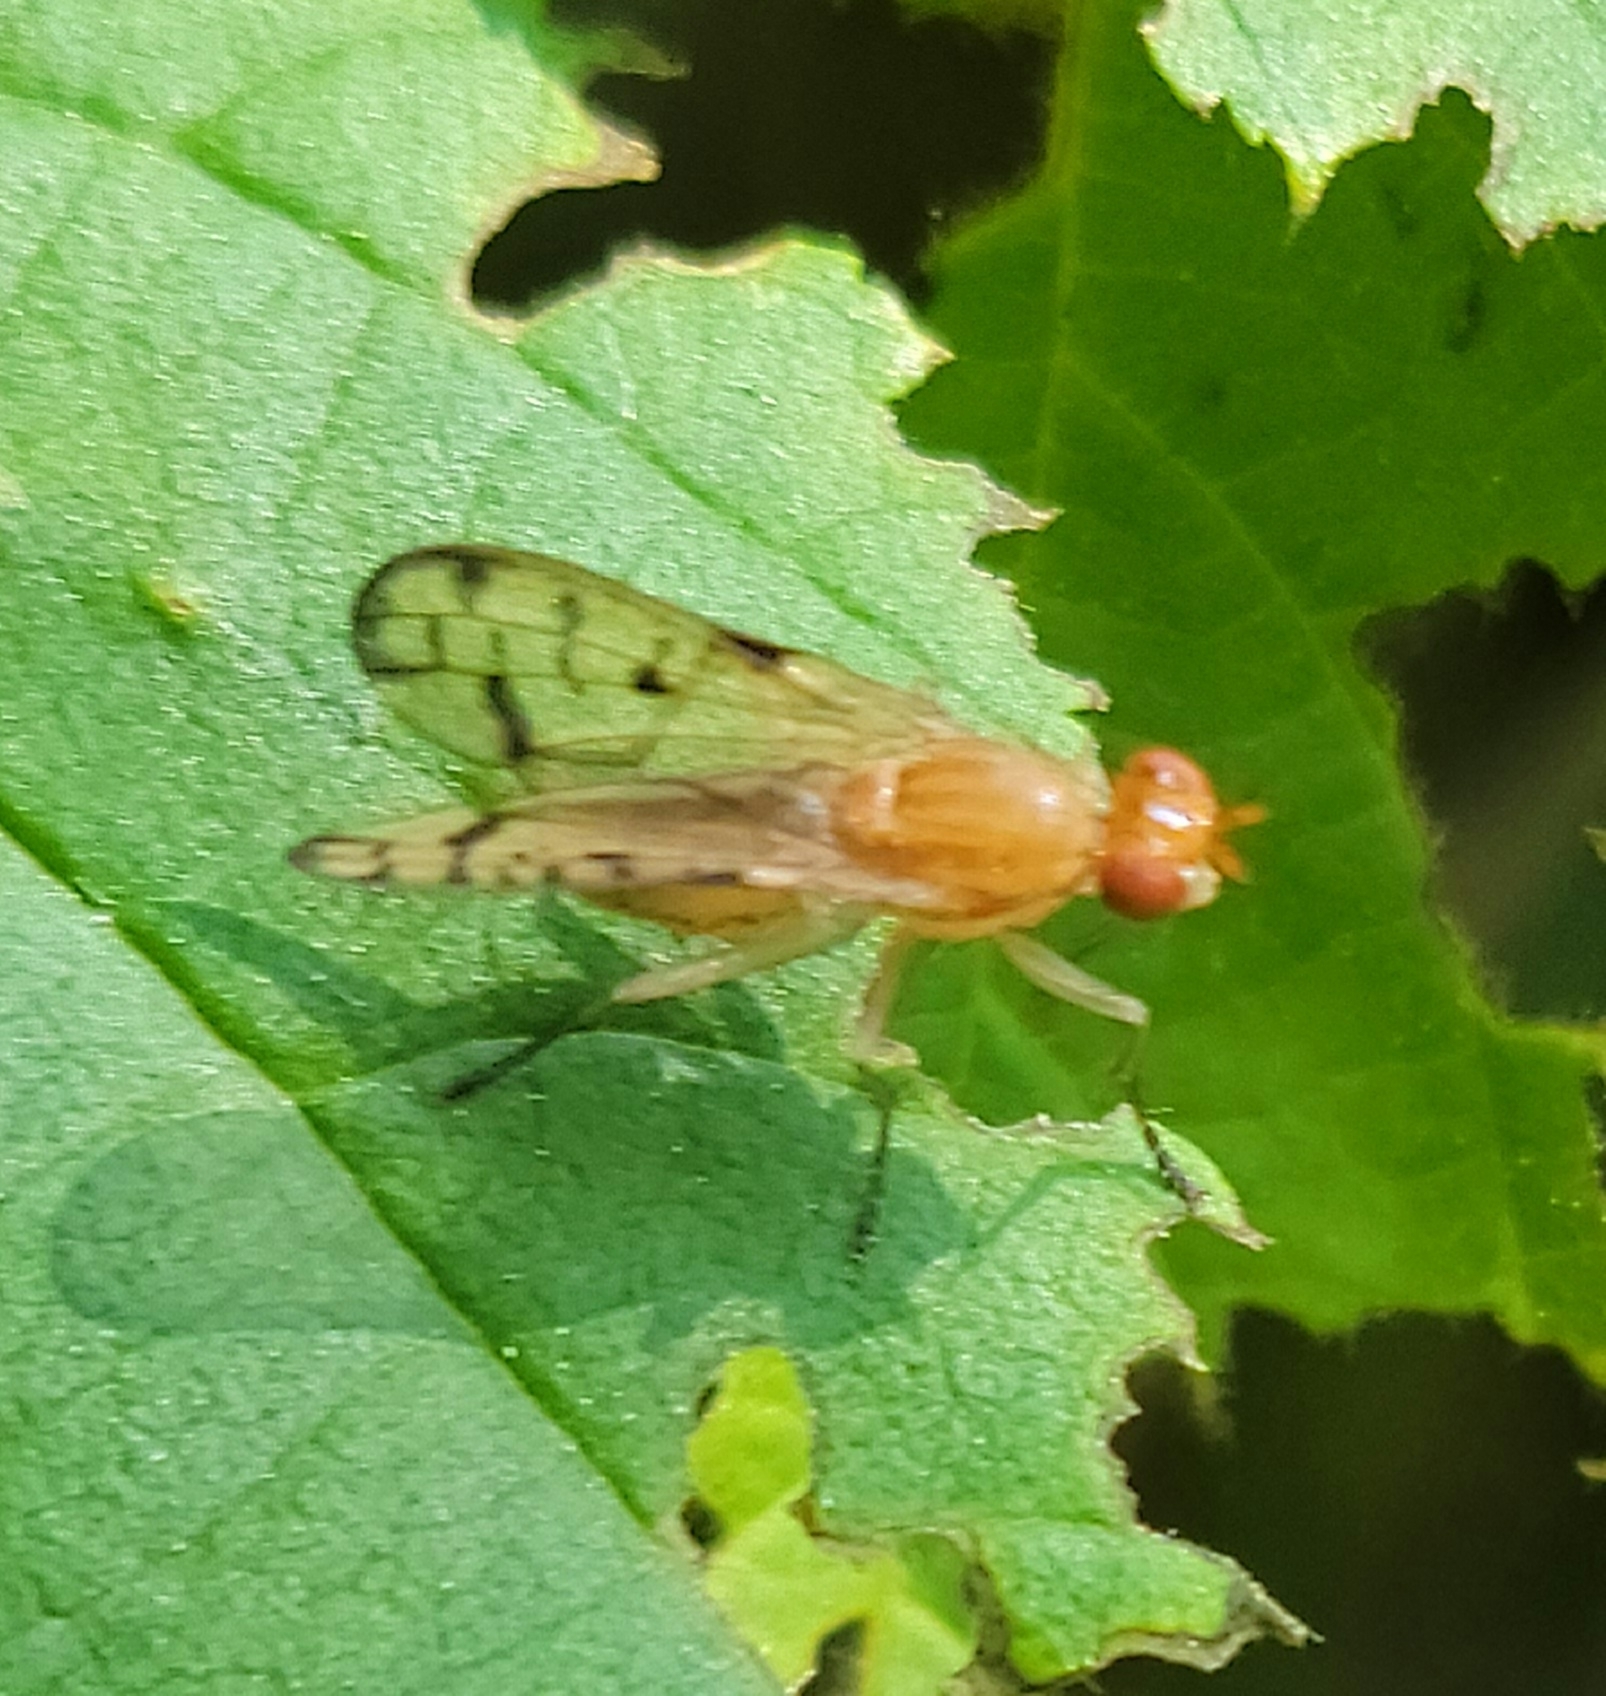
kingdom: Animalia
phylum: Arthropoda
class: Insecta
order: Diptera
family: Sciomyzidae
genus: Tetanocera
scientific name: Tetanocera clara
